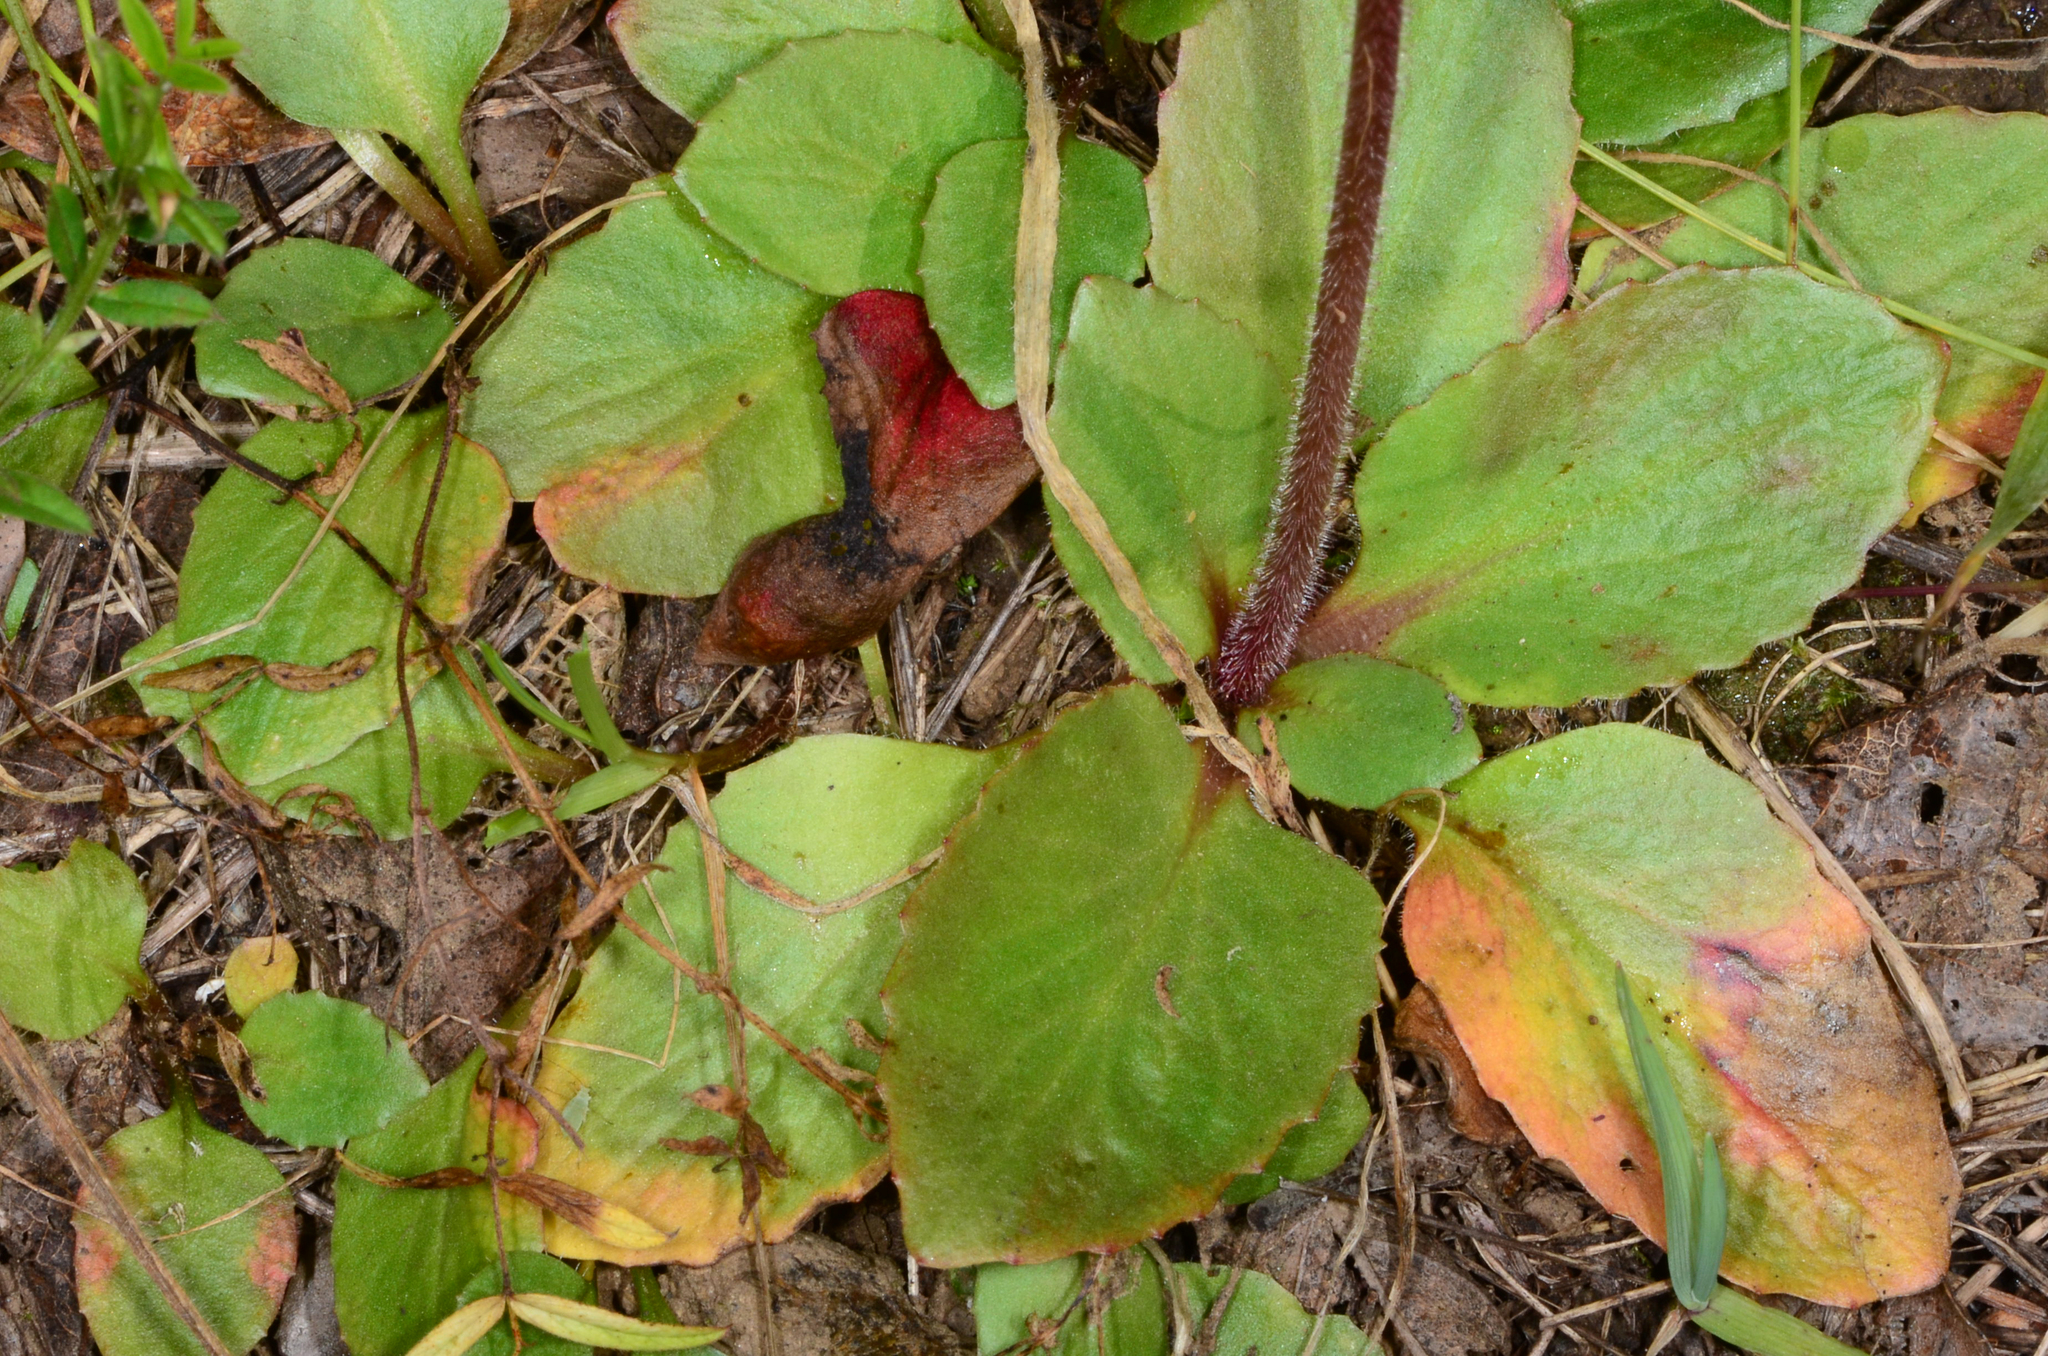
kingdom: Plantae
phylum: Tracheophyta
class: Magnoliopsida
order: Saxifragales
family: Saxifragaceae
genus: Micranthes
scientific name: Micranthes integrifolia
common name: Wholeleaf saxifrage
